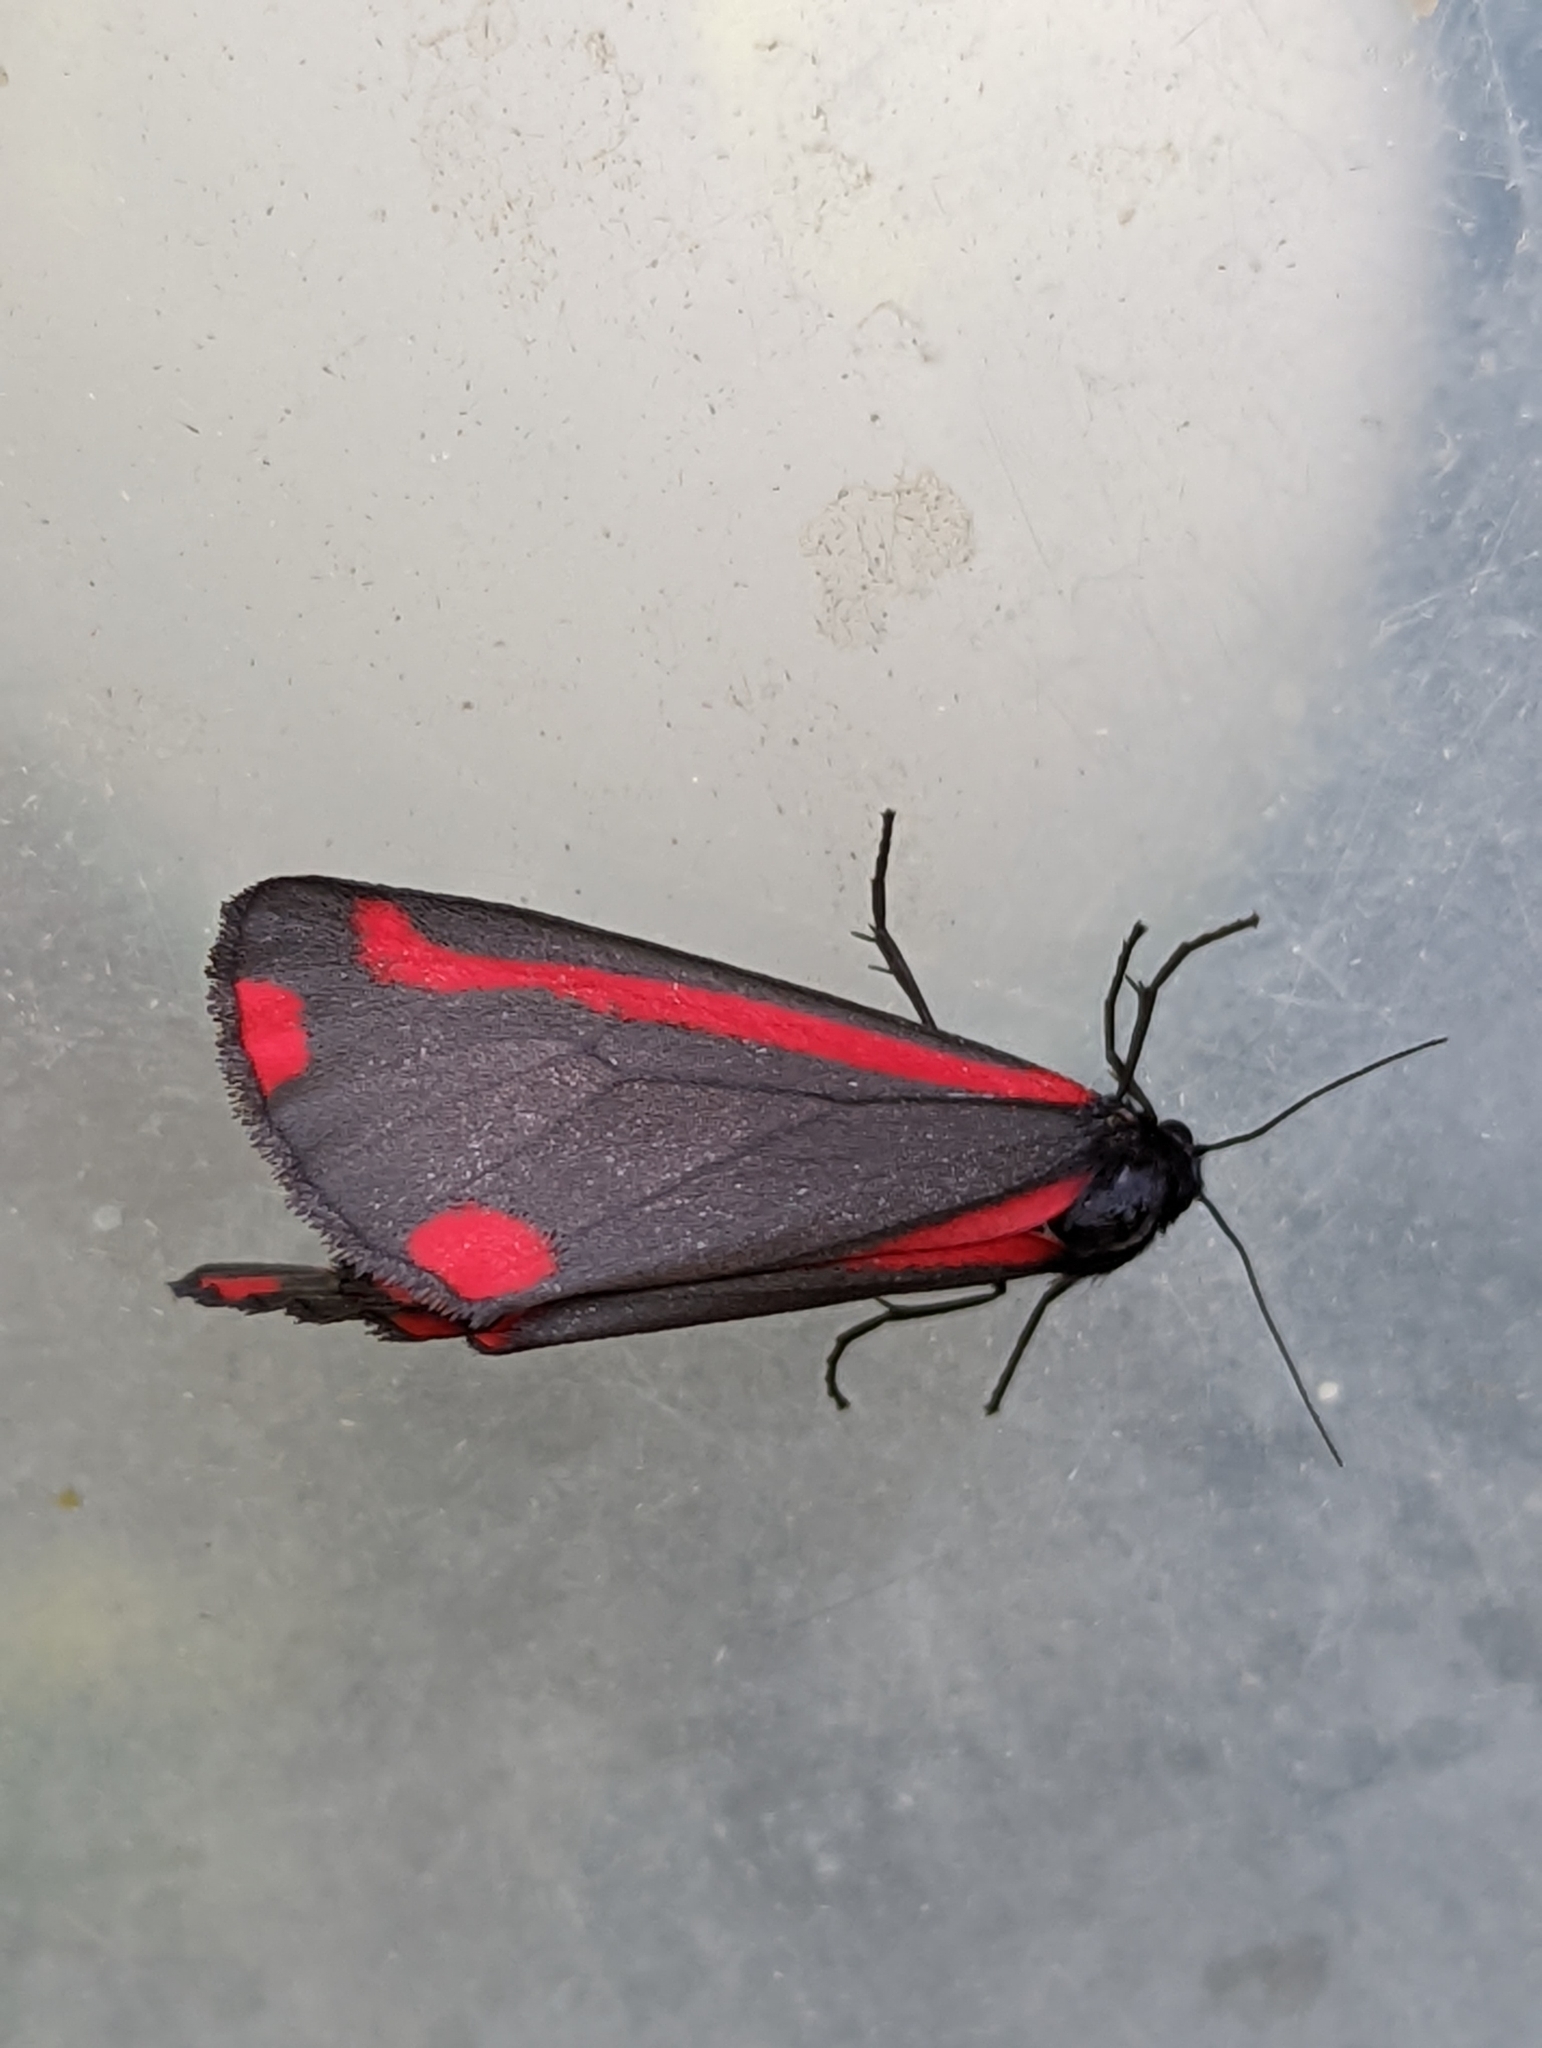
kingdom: Animalia
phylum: Arthropoda
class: Insecta
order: Lepidoptera
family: Erebidae
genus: Tyria
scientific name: Tyria jacobaeae
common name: Cinnabar
